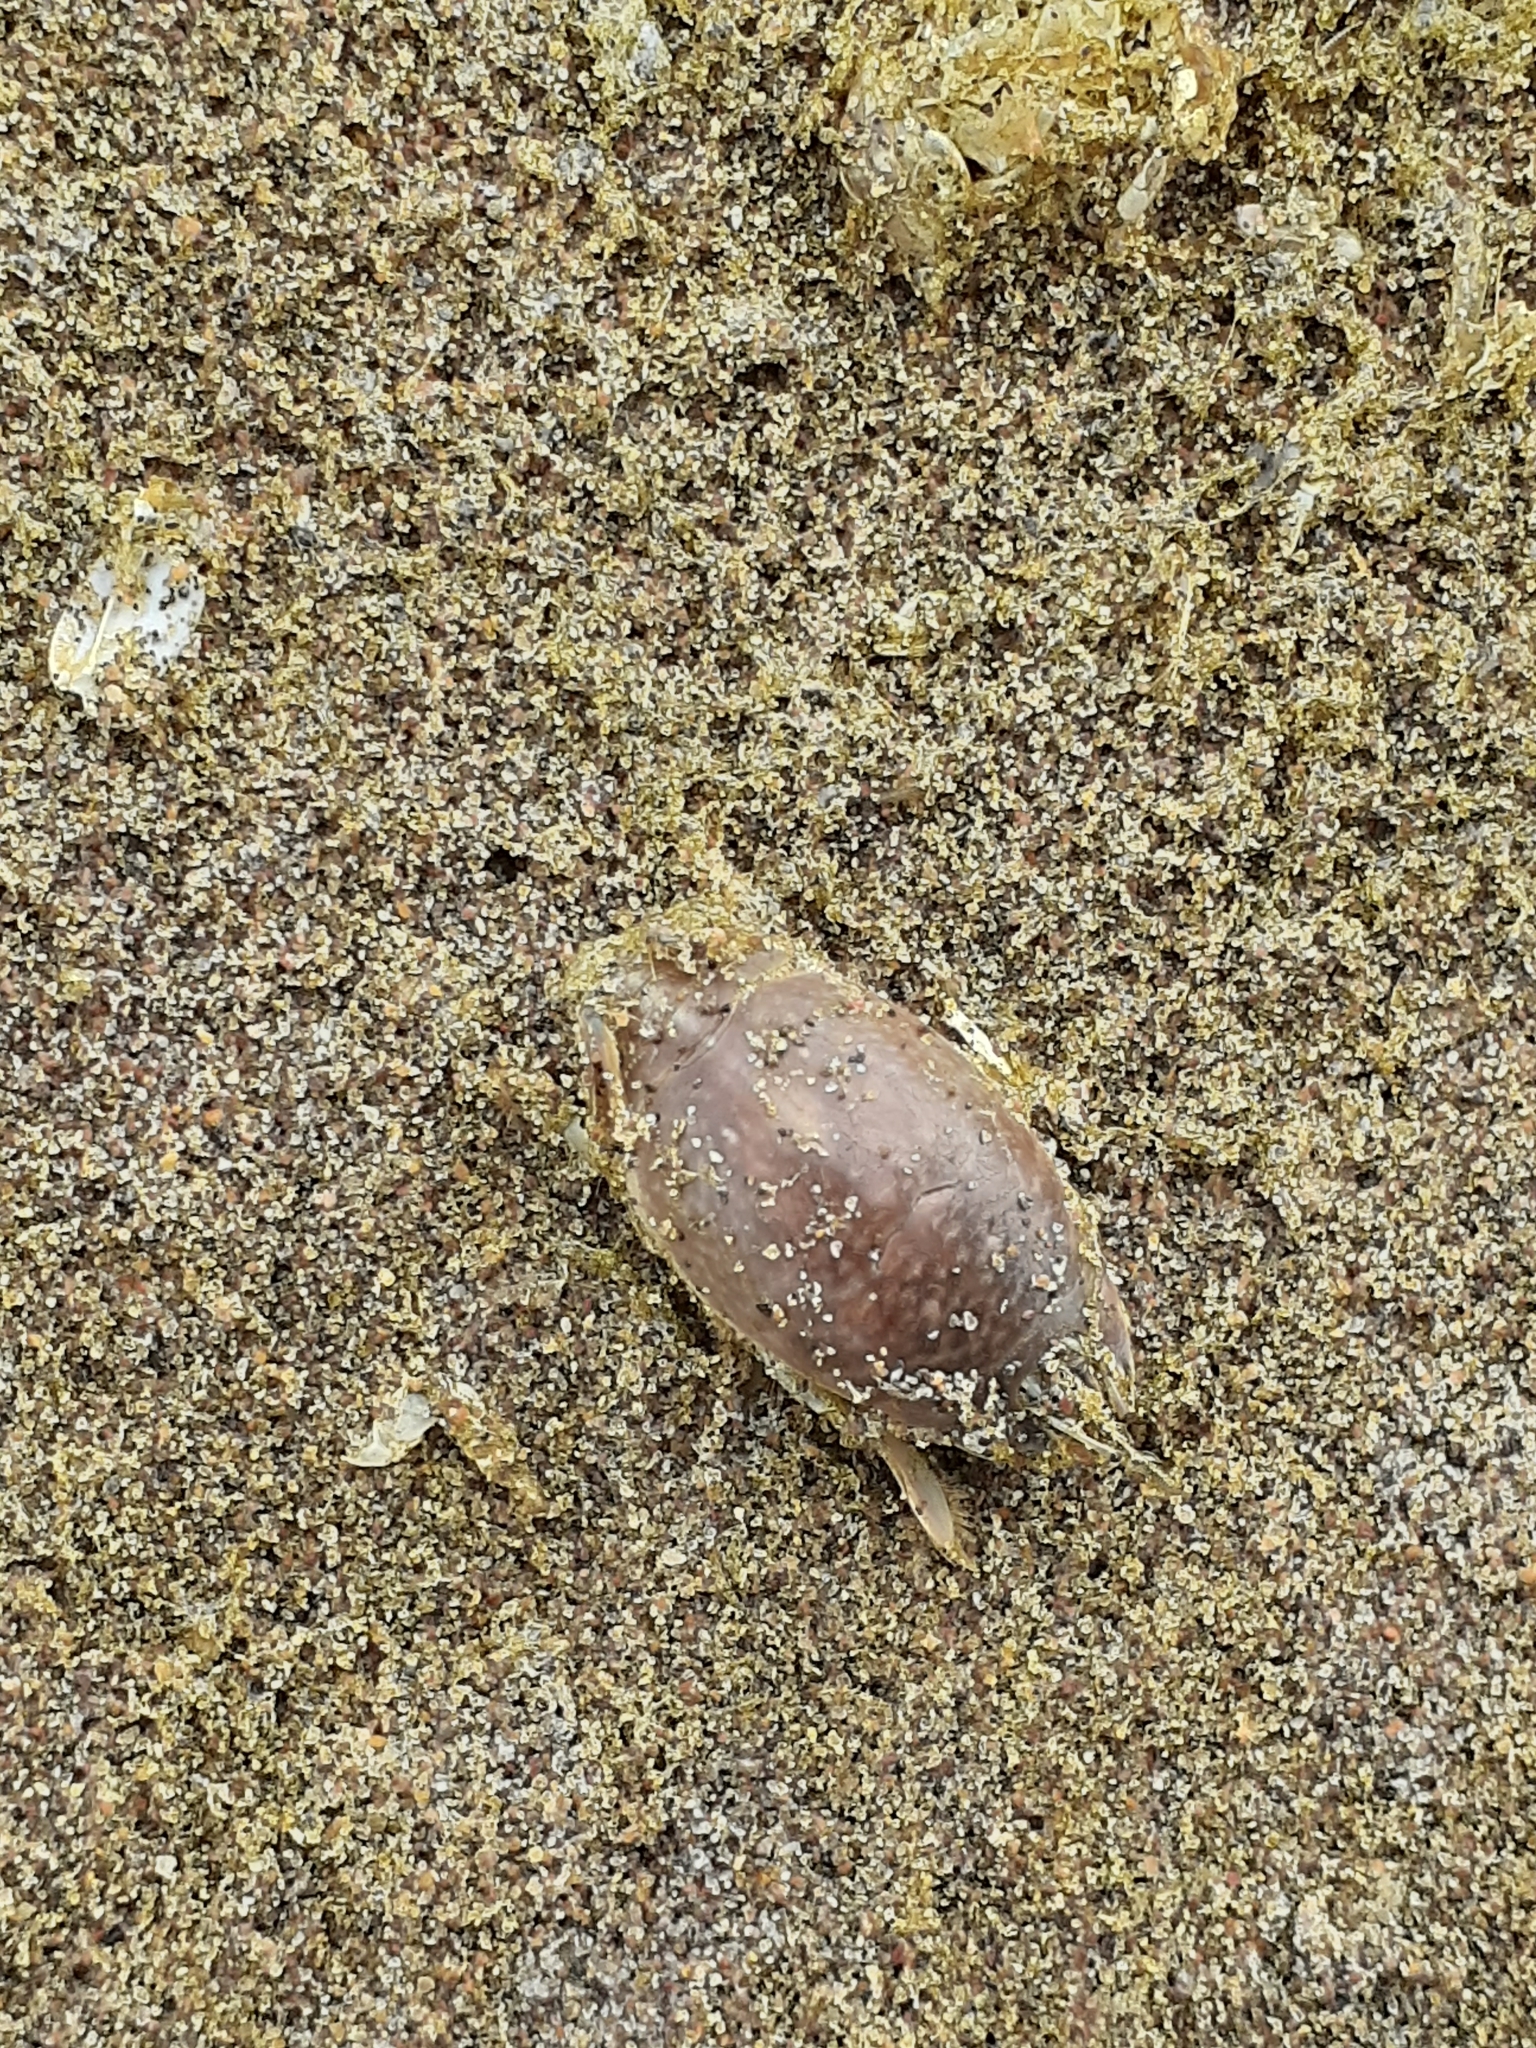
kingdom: Animalia
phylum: Arthropoda
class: Malacostraca
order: Decapoda
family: Hippidae
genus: Emerita
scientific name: Emerita analoga
